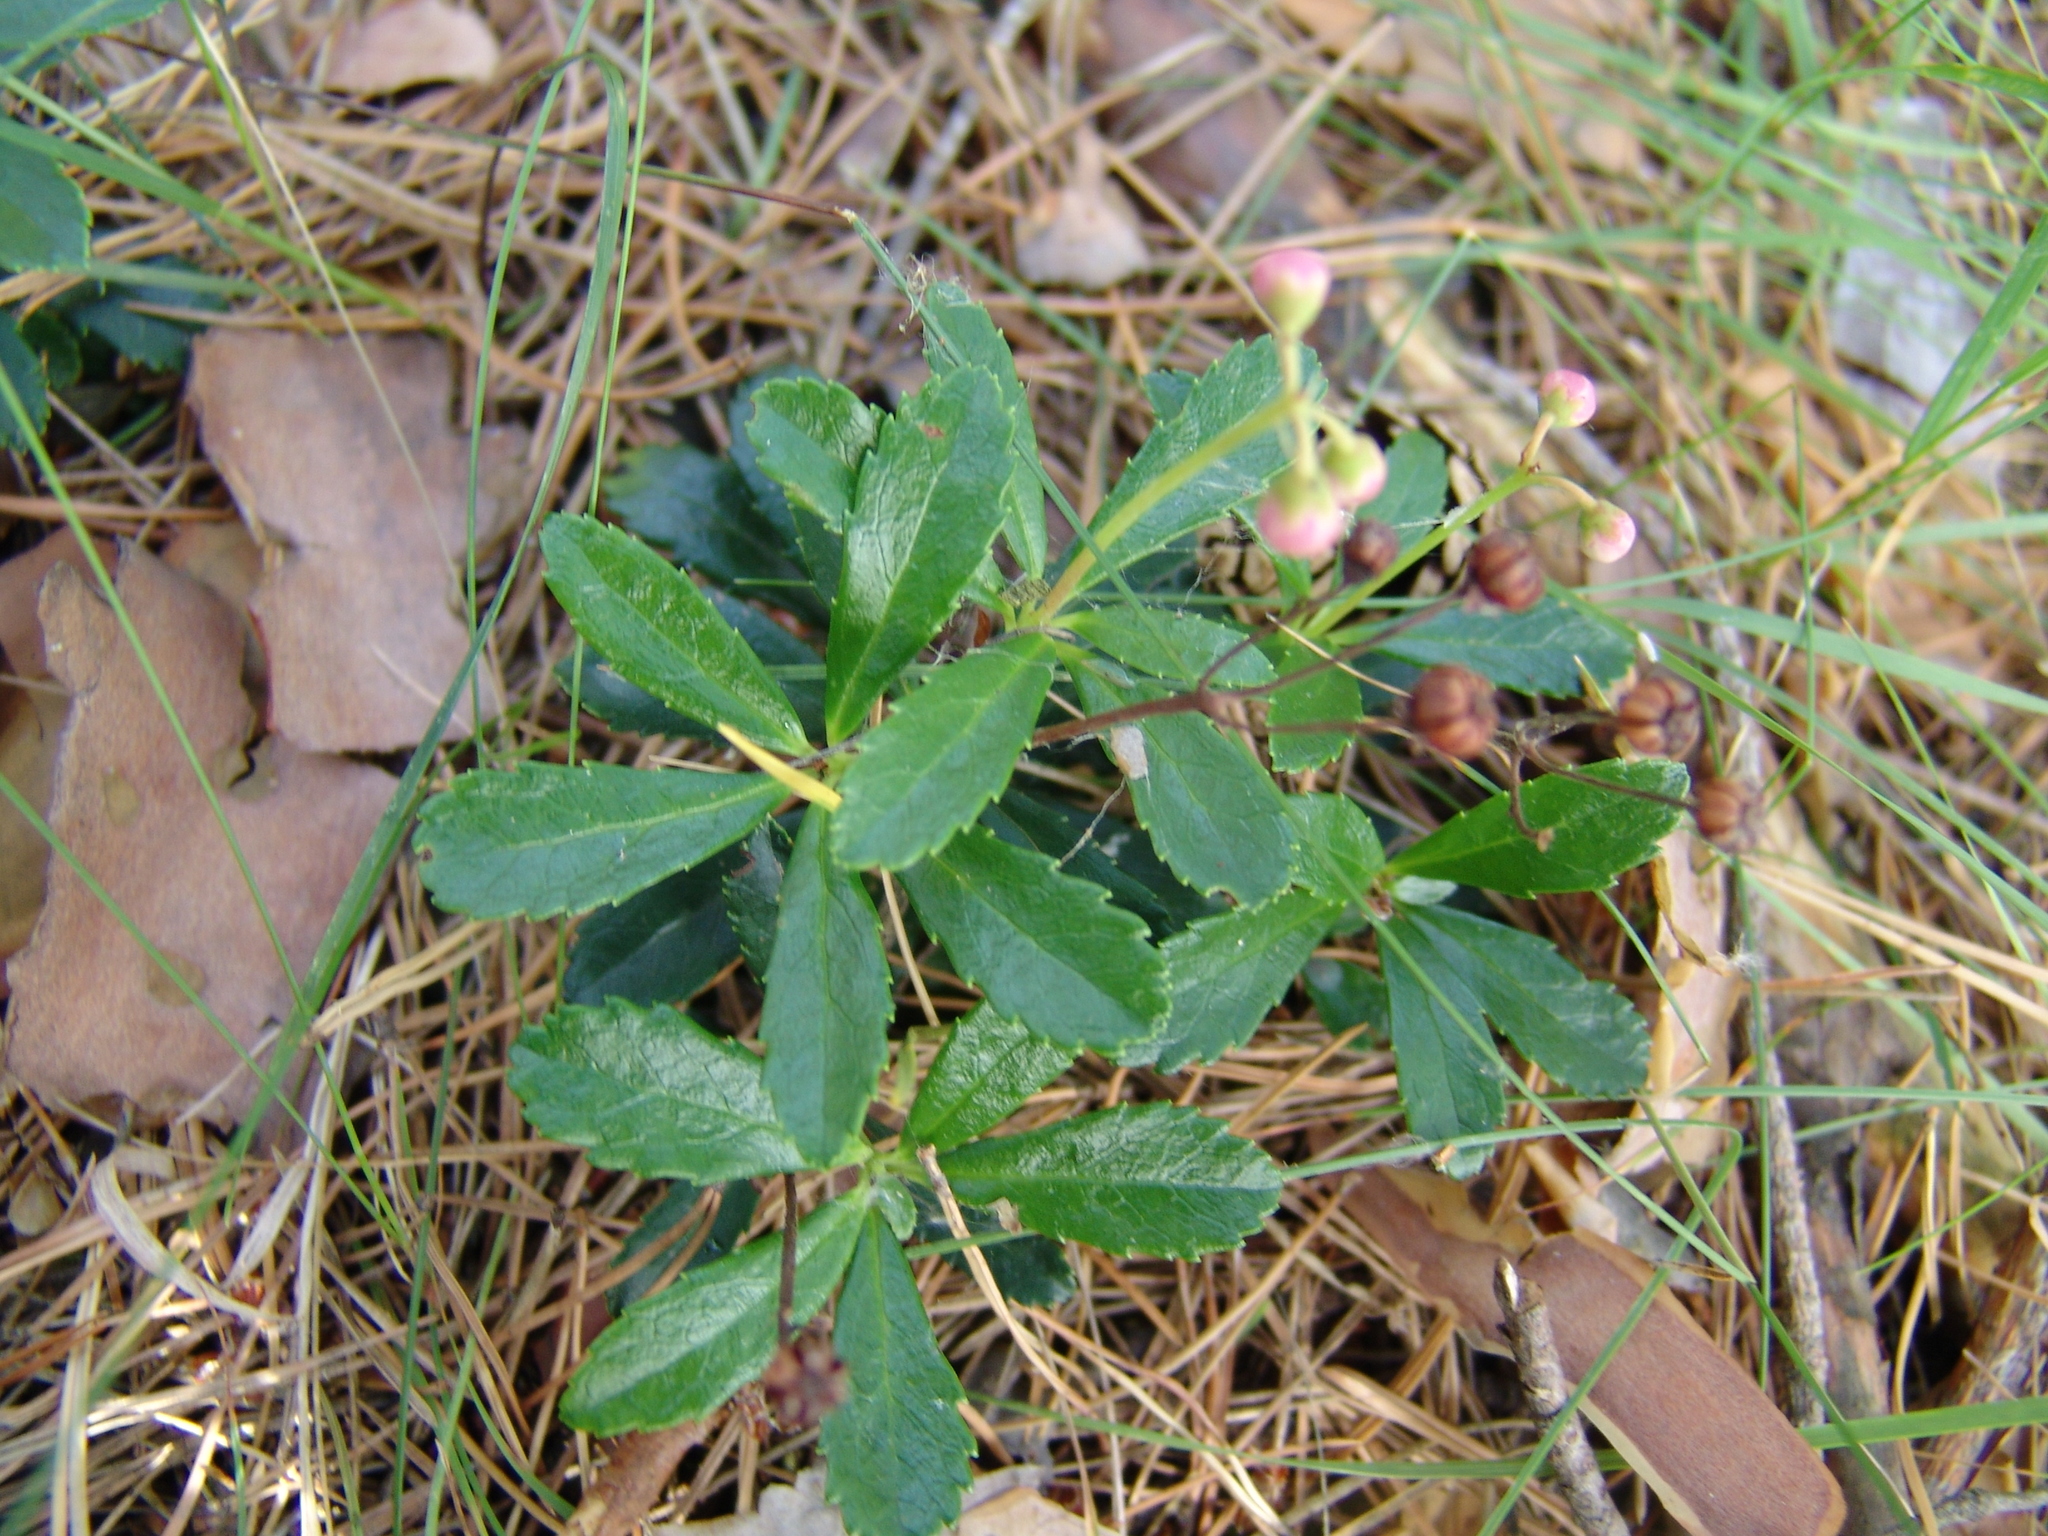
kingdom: Plantae
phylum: Tracheophyta
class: Magnoliopsida
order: Ericales
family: Ericaceae
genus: Chimaphila
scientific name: Chimaphila umbellata
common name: Pipsissewa
